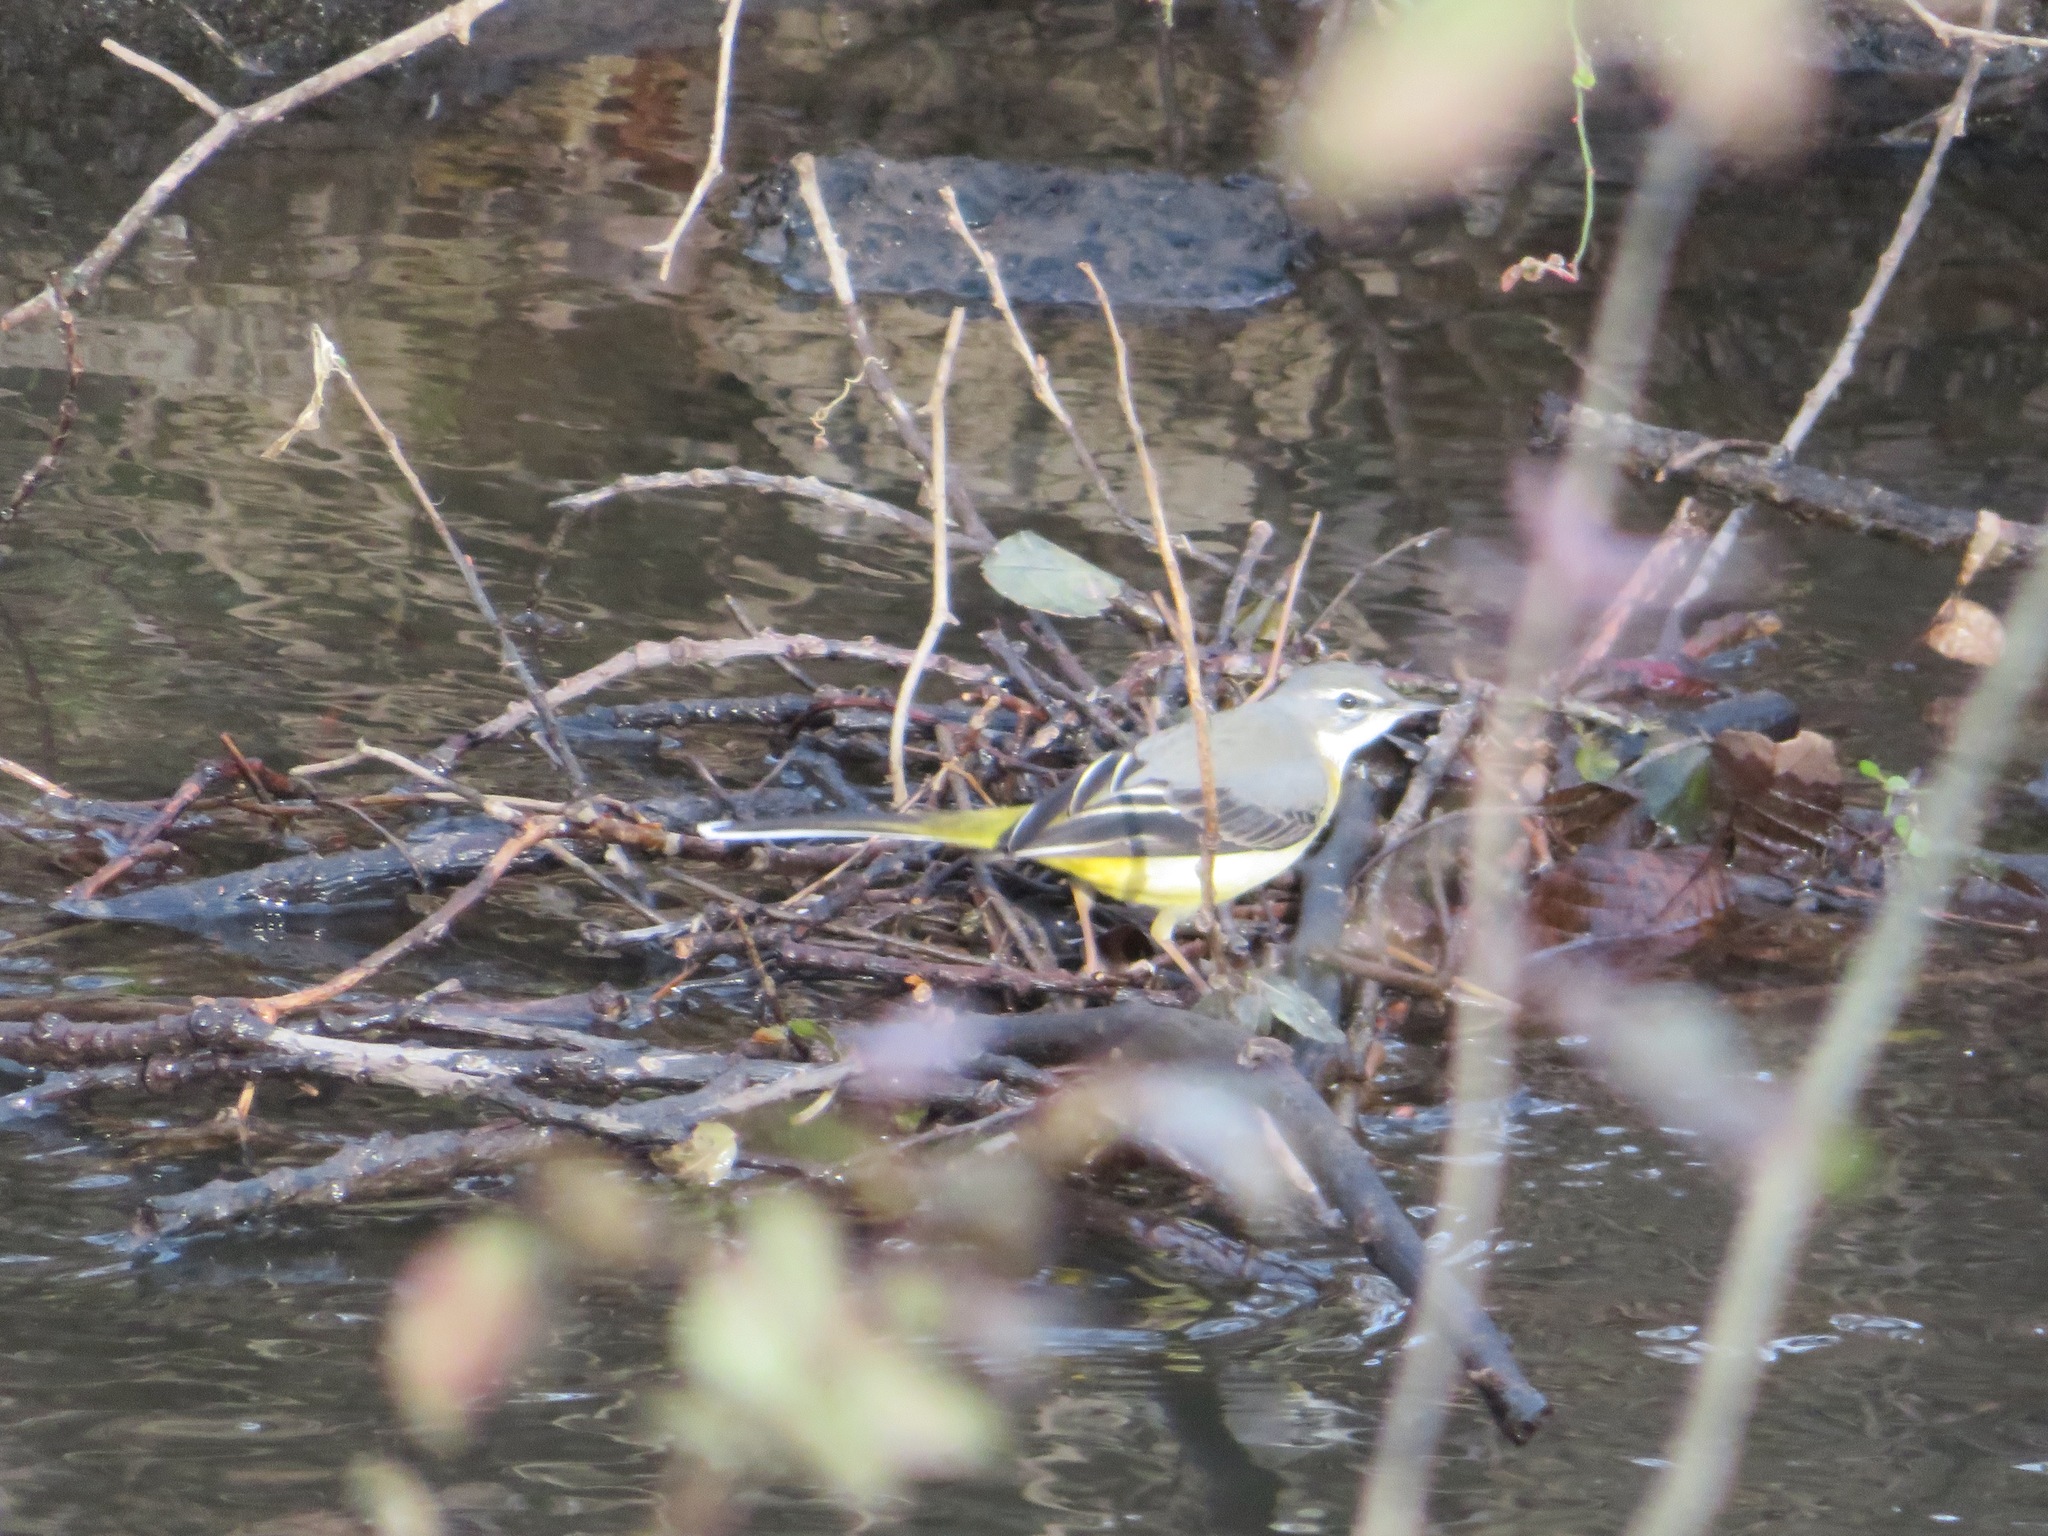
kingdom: Animalia
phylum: Chordata
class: Aves
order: Passeriformes
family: Motacillidae
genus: Motacilla
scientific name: Motacilla cinerea
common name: Grey wagtail
